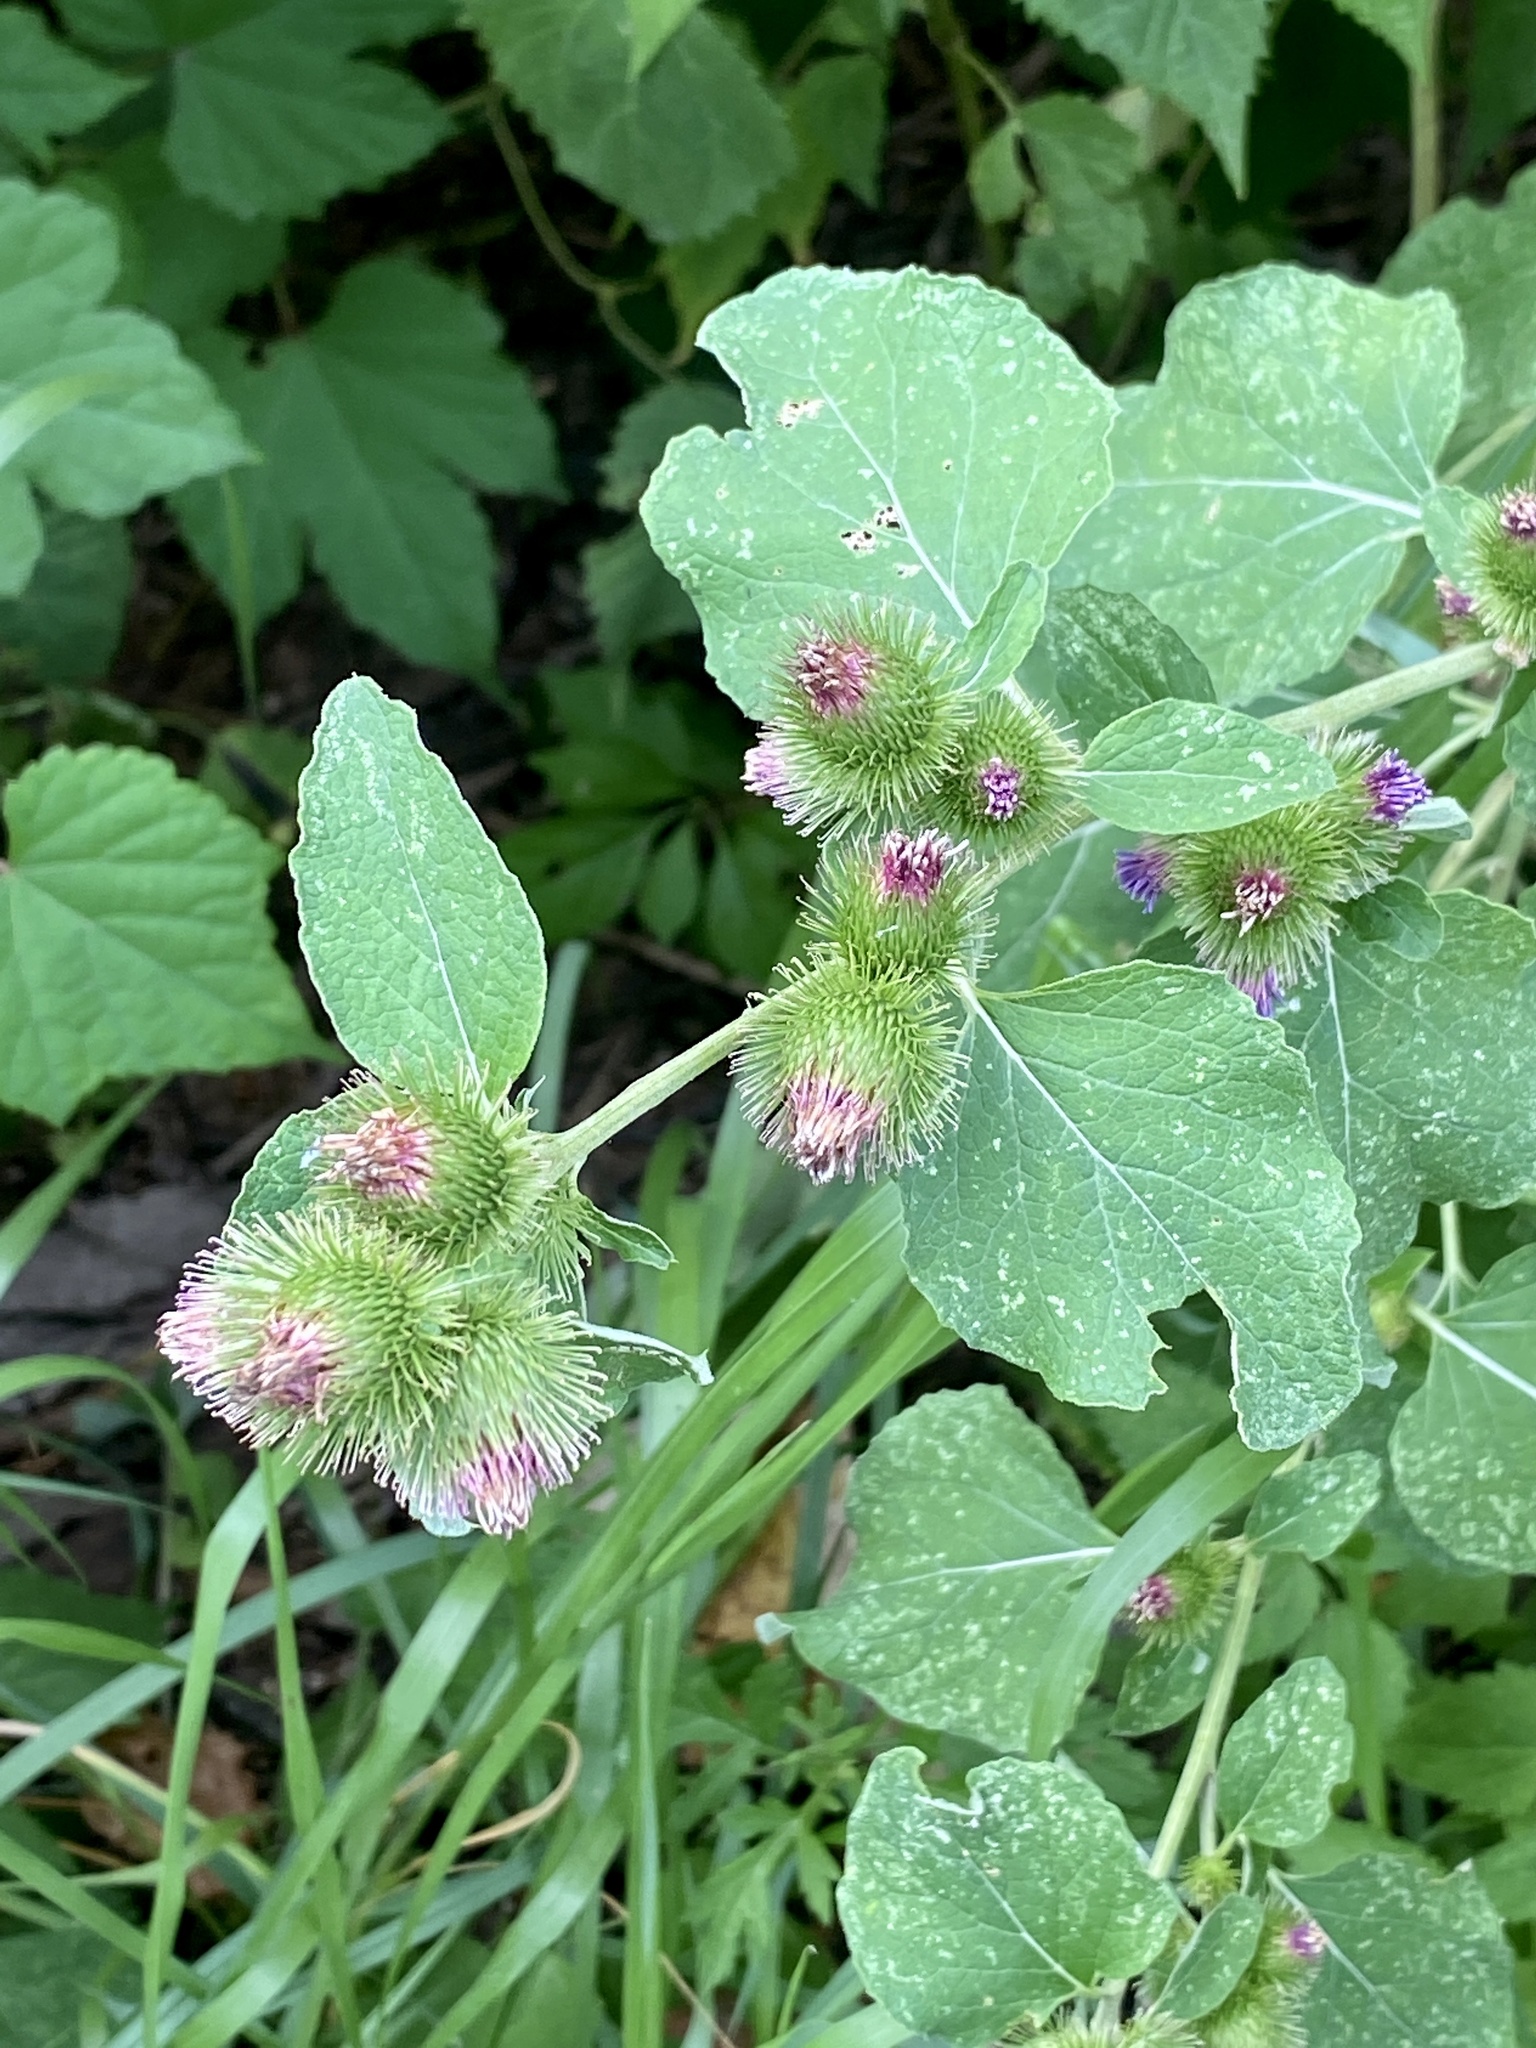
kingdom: Plantae
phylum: Tracheophyta
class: Magnoliopsida
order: Asterales
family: Asteraceae
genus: Arctium
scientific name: Arctium minus
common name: Lesser burdock
